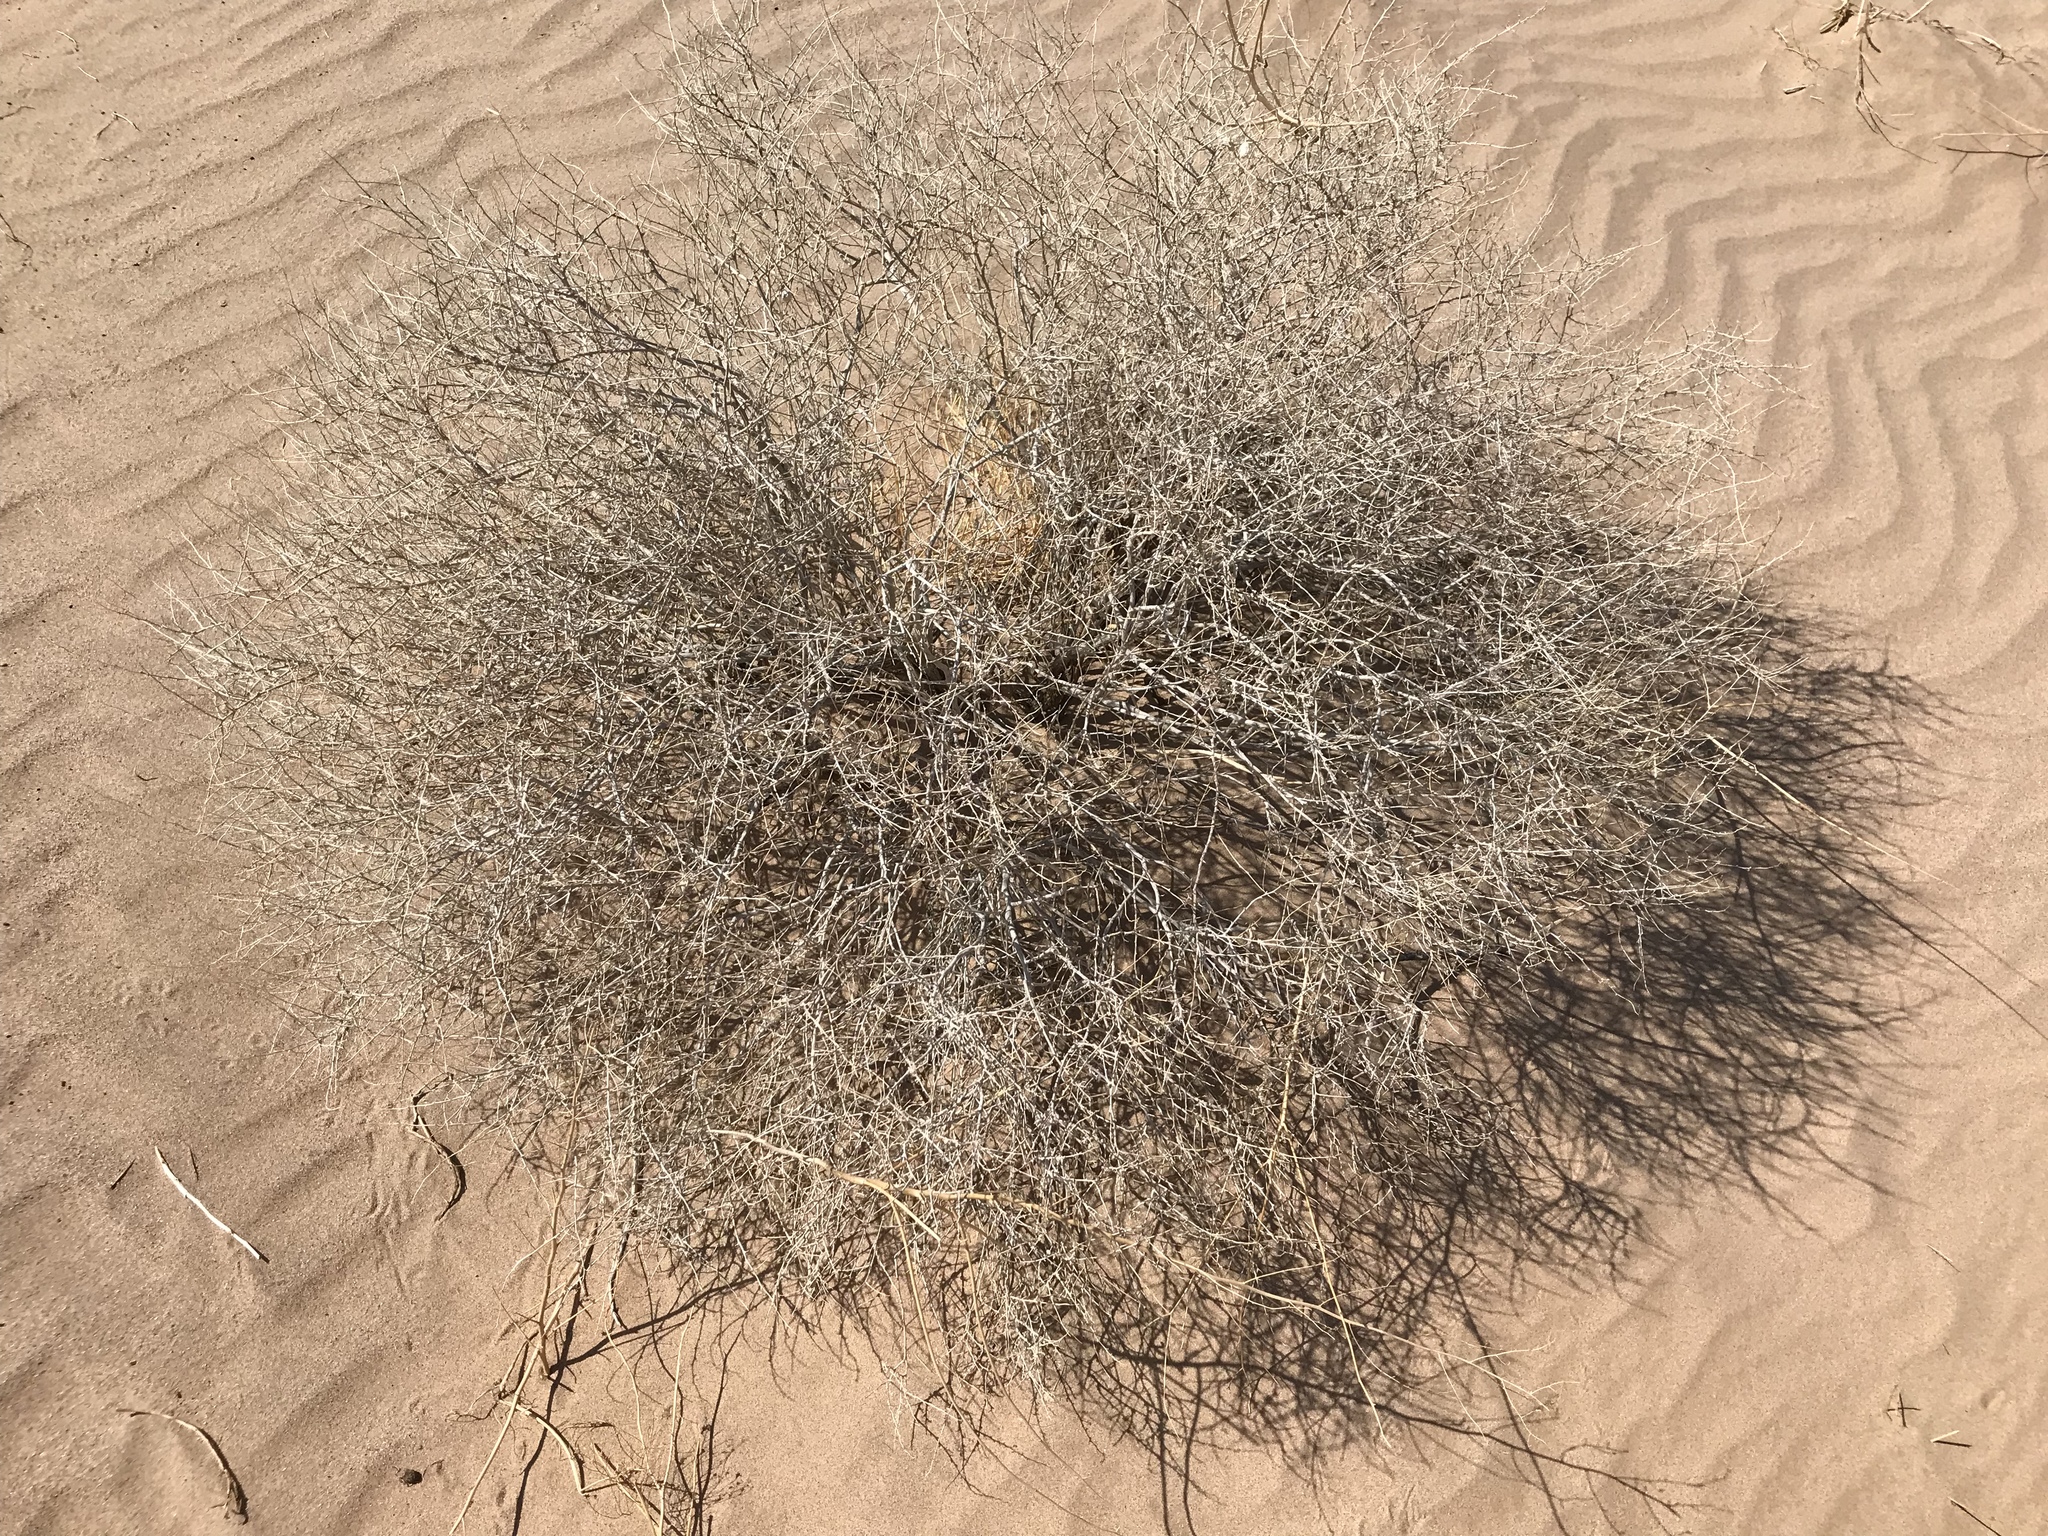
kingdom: Plantae
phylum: Tracheophyta
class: Magnoliopsida
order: Asterales
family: Asteraceae
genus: Ambrosia
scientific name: Ambrosia dumosa
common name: Bur-sage
